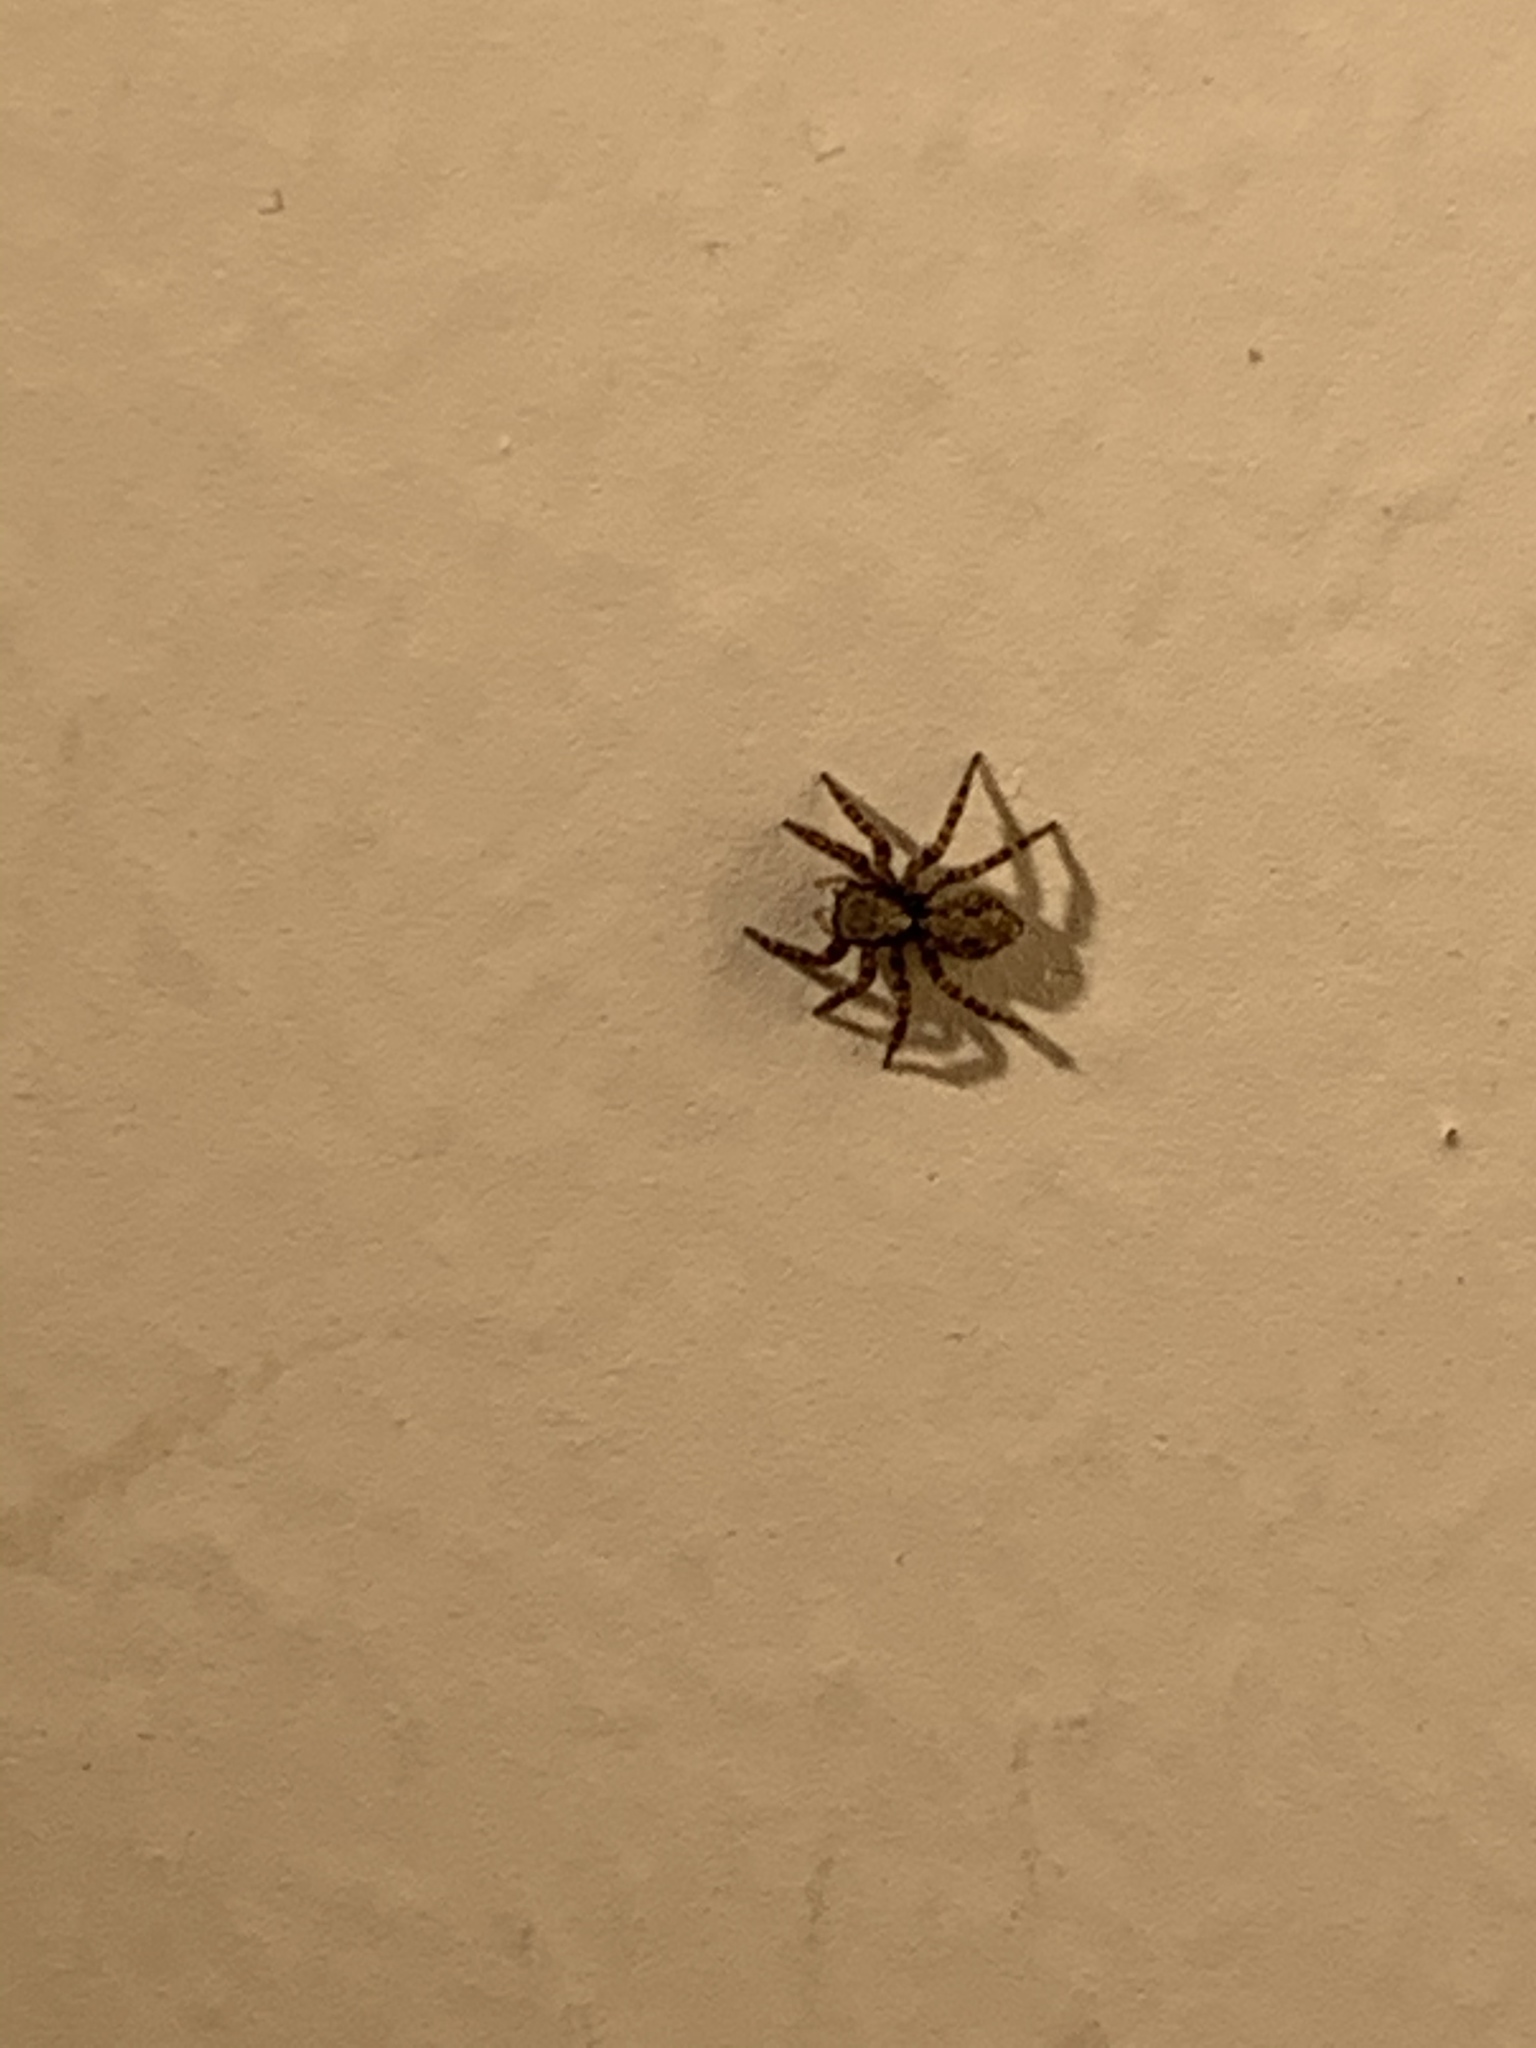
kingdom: Animalia
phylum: Arthropoda
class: Arachnida
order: Araneae
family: Salticidae
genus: Pseudeuophrys
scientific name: Pseudeuophrys lanigera
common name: Jumping spider
